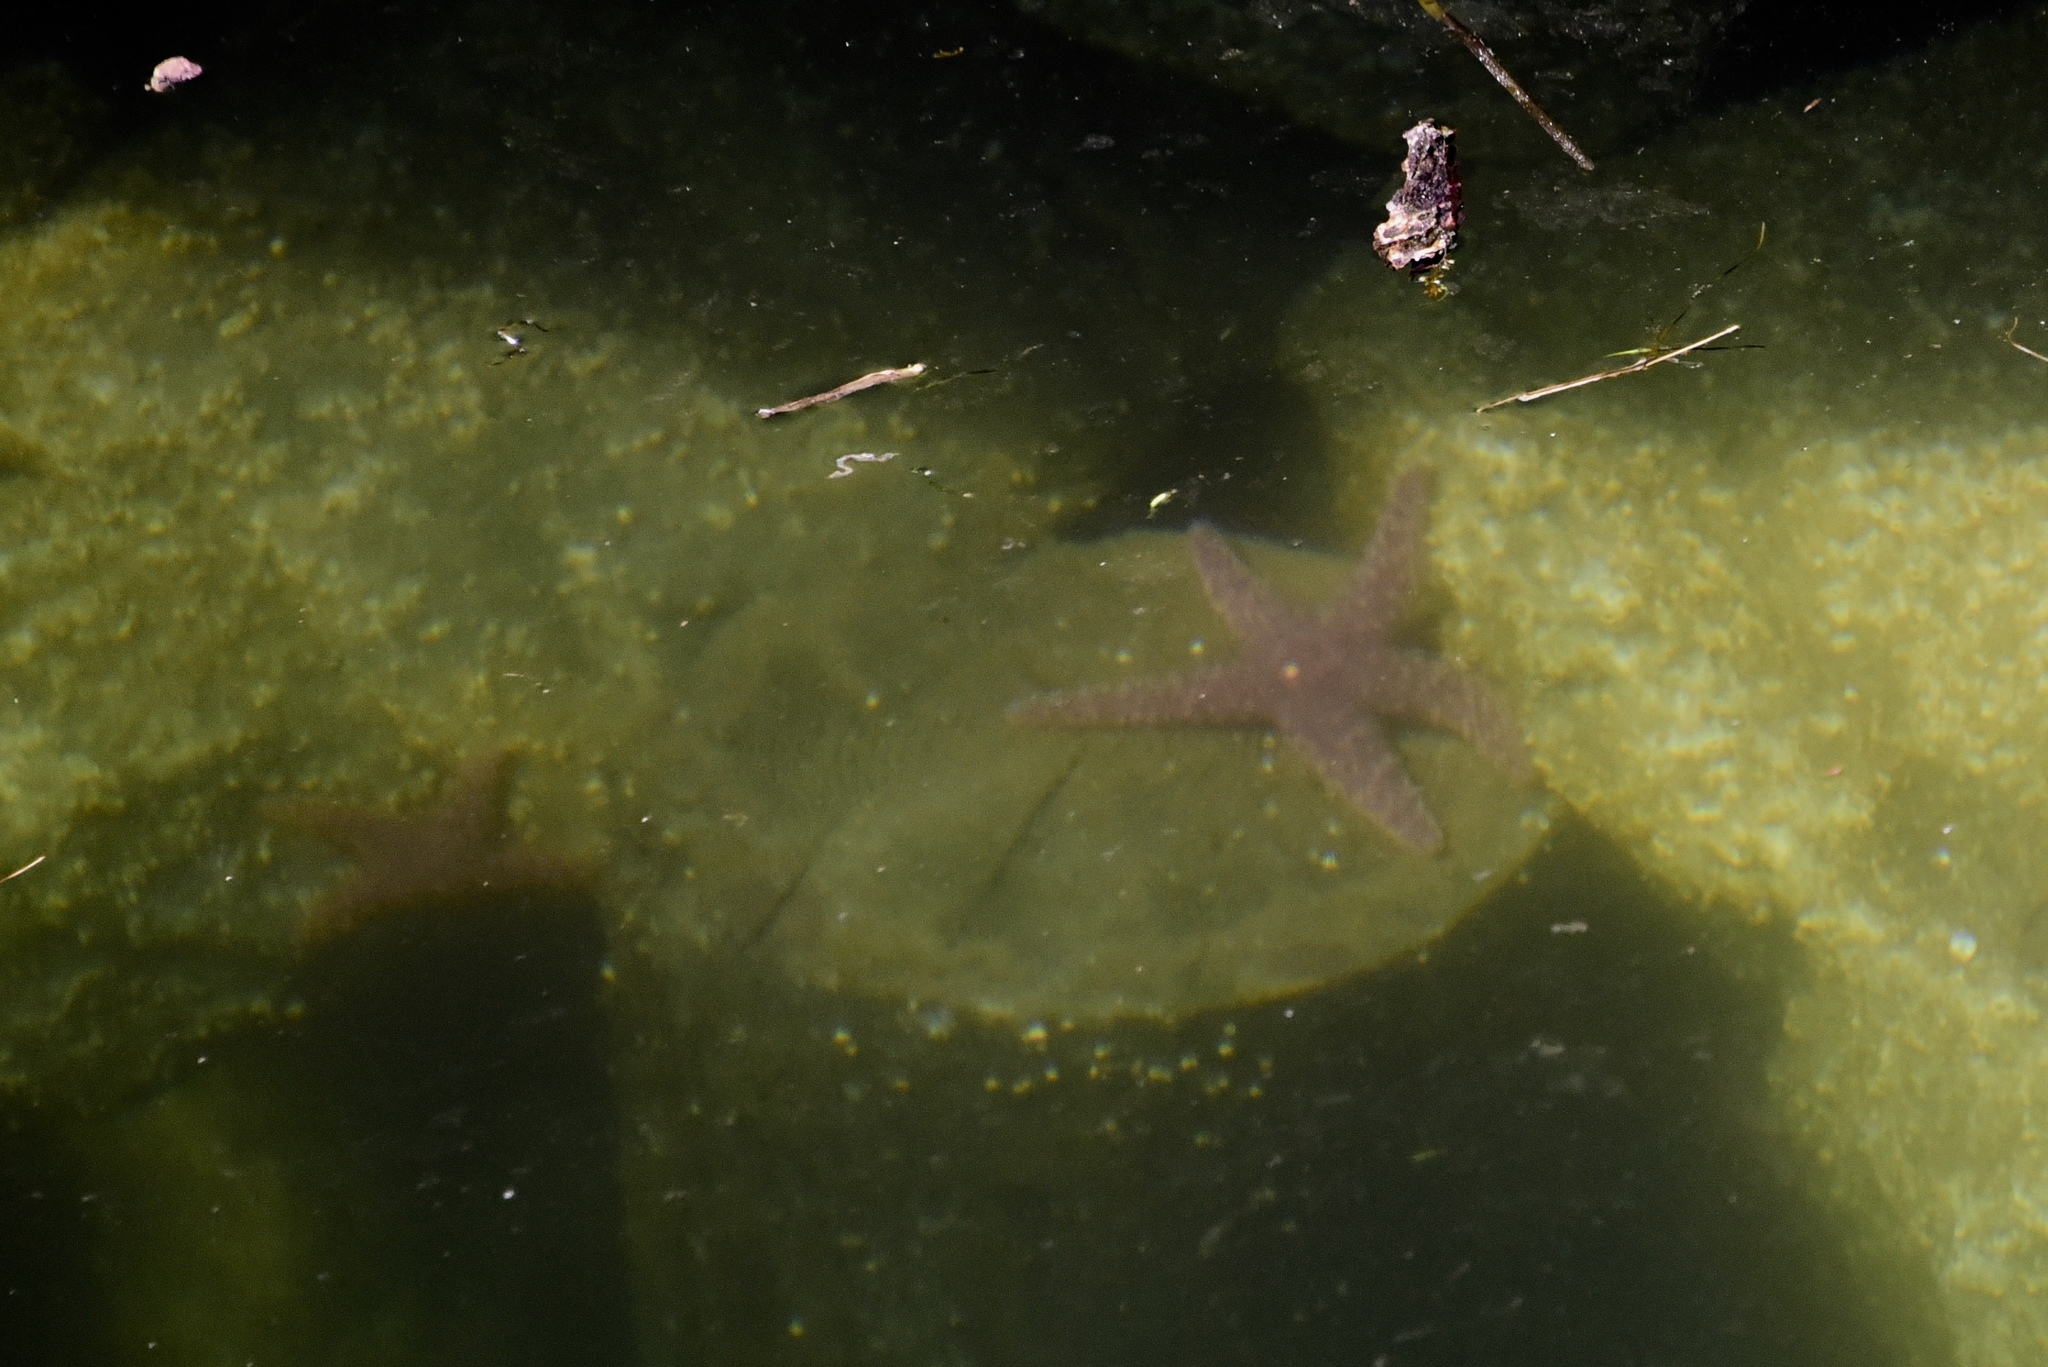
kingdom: Animalia
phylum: Echinodermata
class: Asteroidea
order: Forcipulatida
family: Asteriidae
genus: Pisaster
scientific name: Pisaster ochraceus
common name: Ochre stars
